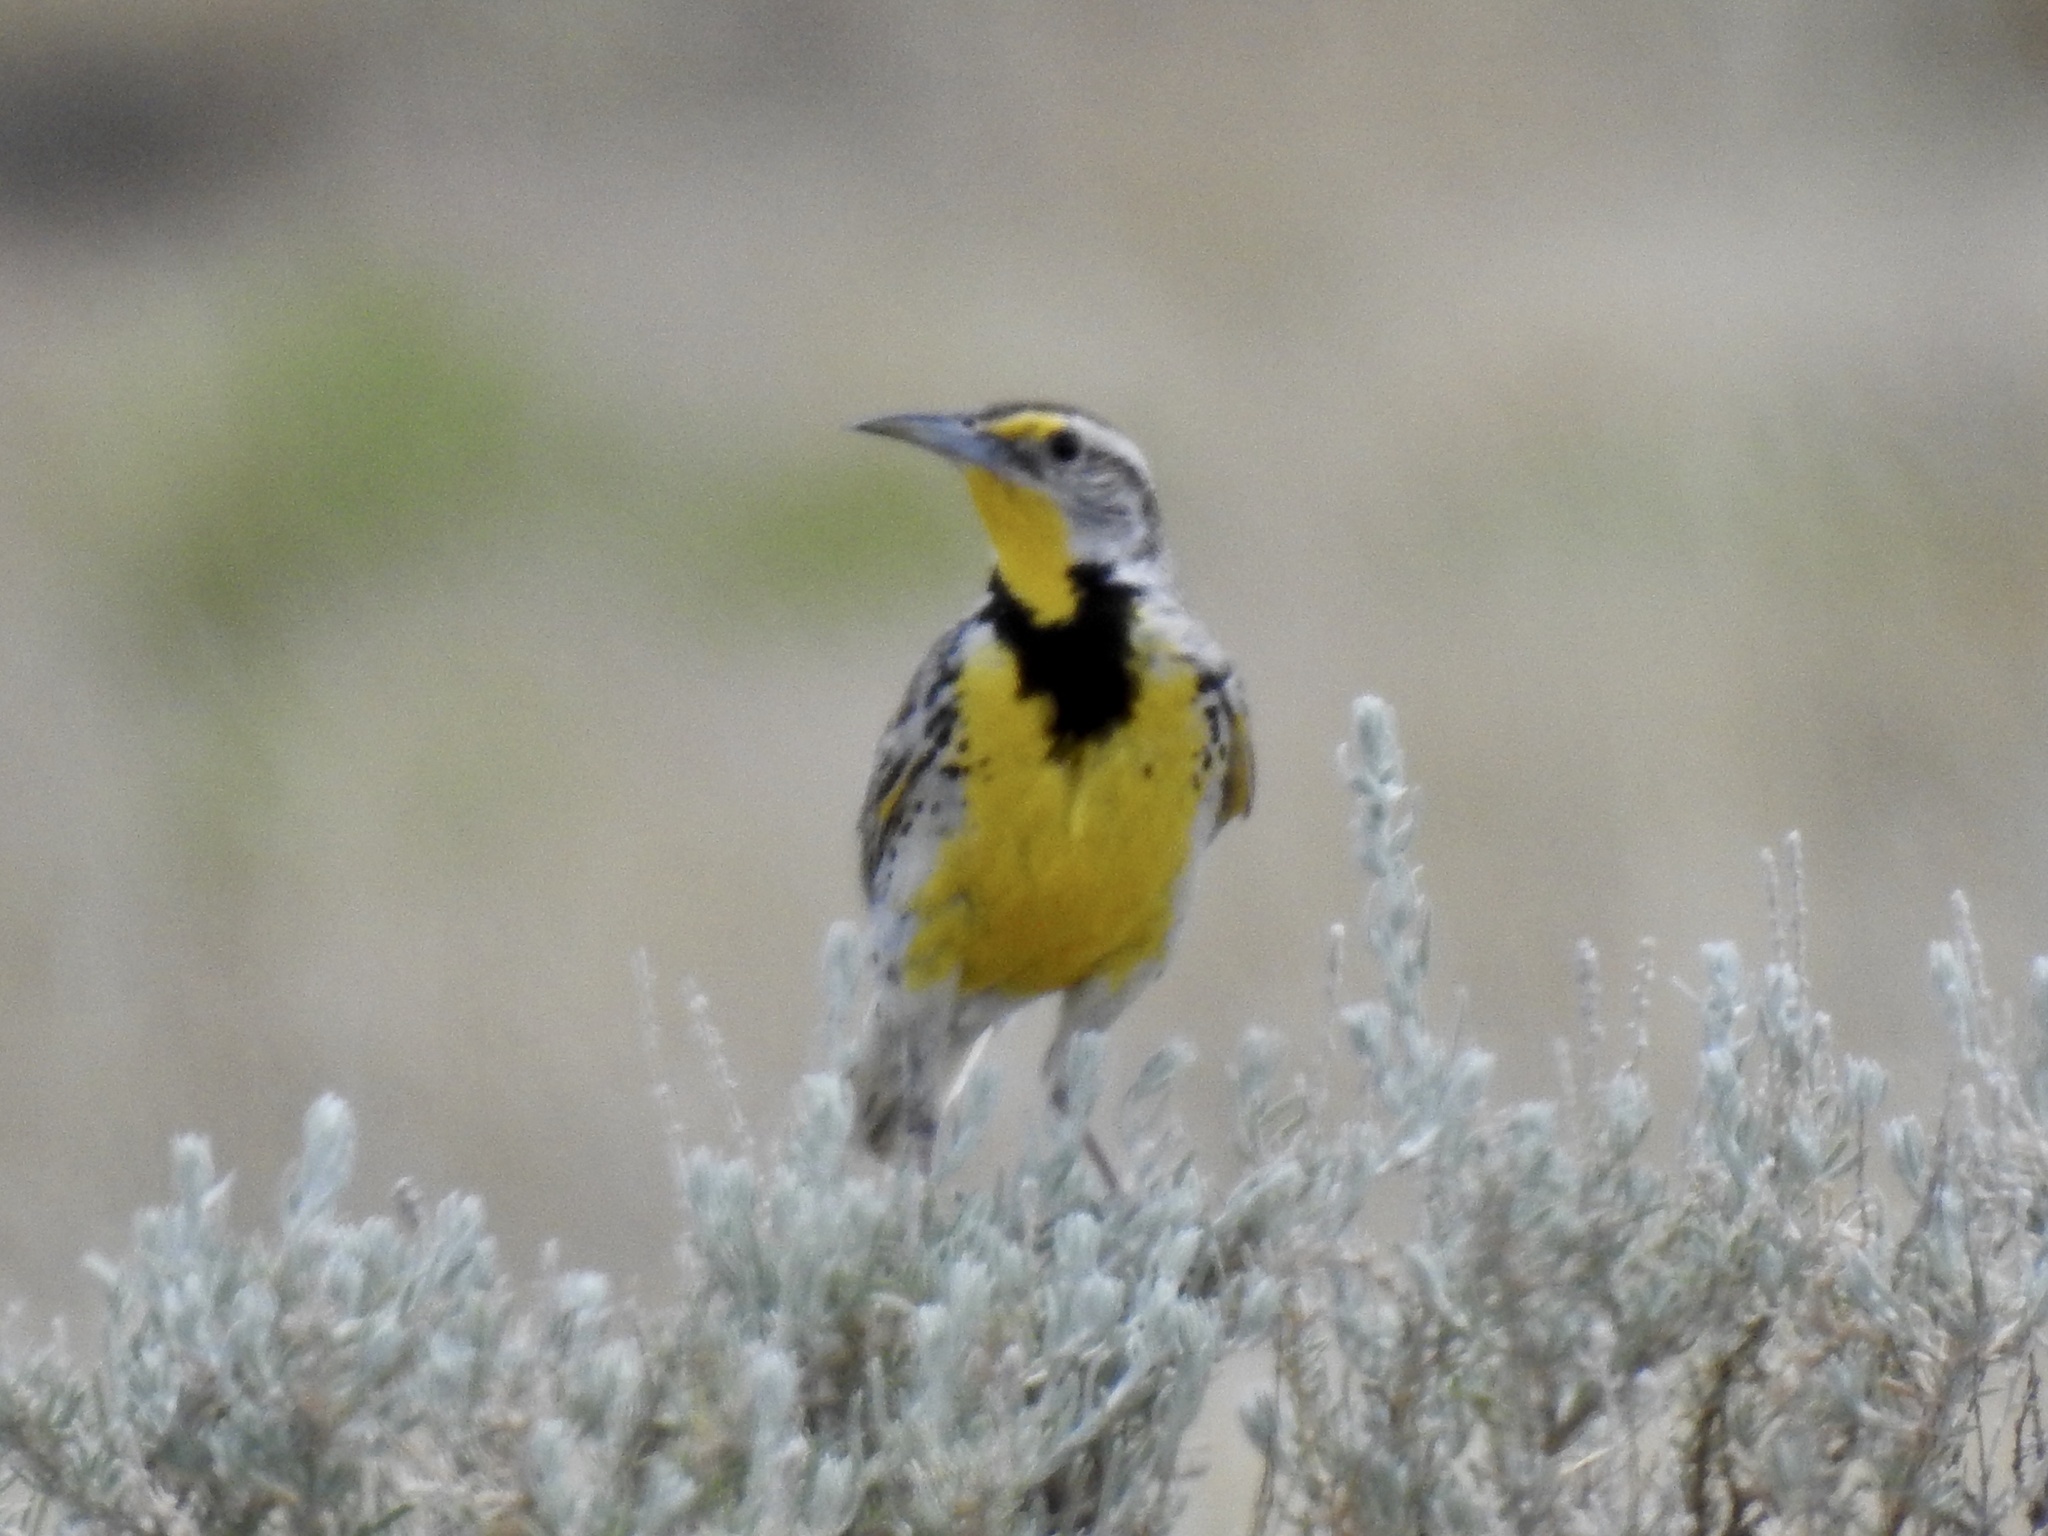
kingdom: Animalia
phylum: Chordata
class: Aves
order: Passeriformes
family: Icteridae
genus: Sturnella
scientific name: Sturnella neglecta
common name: Western meadowlark
